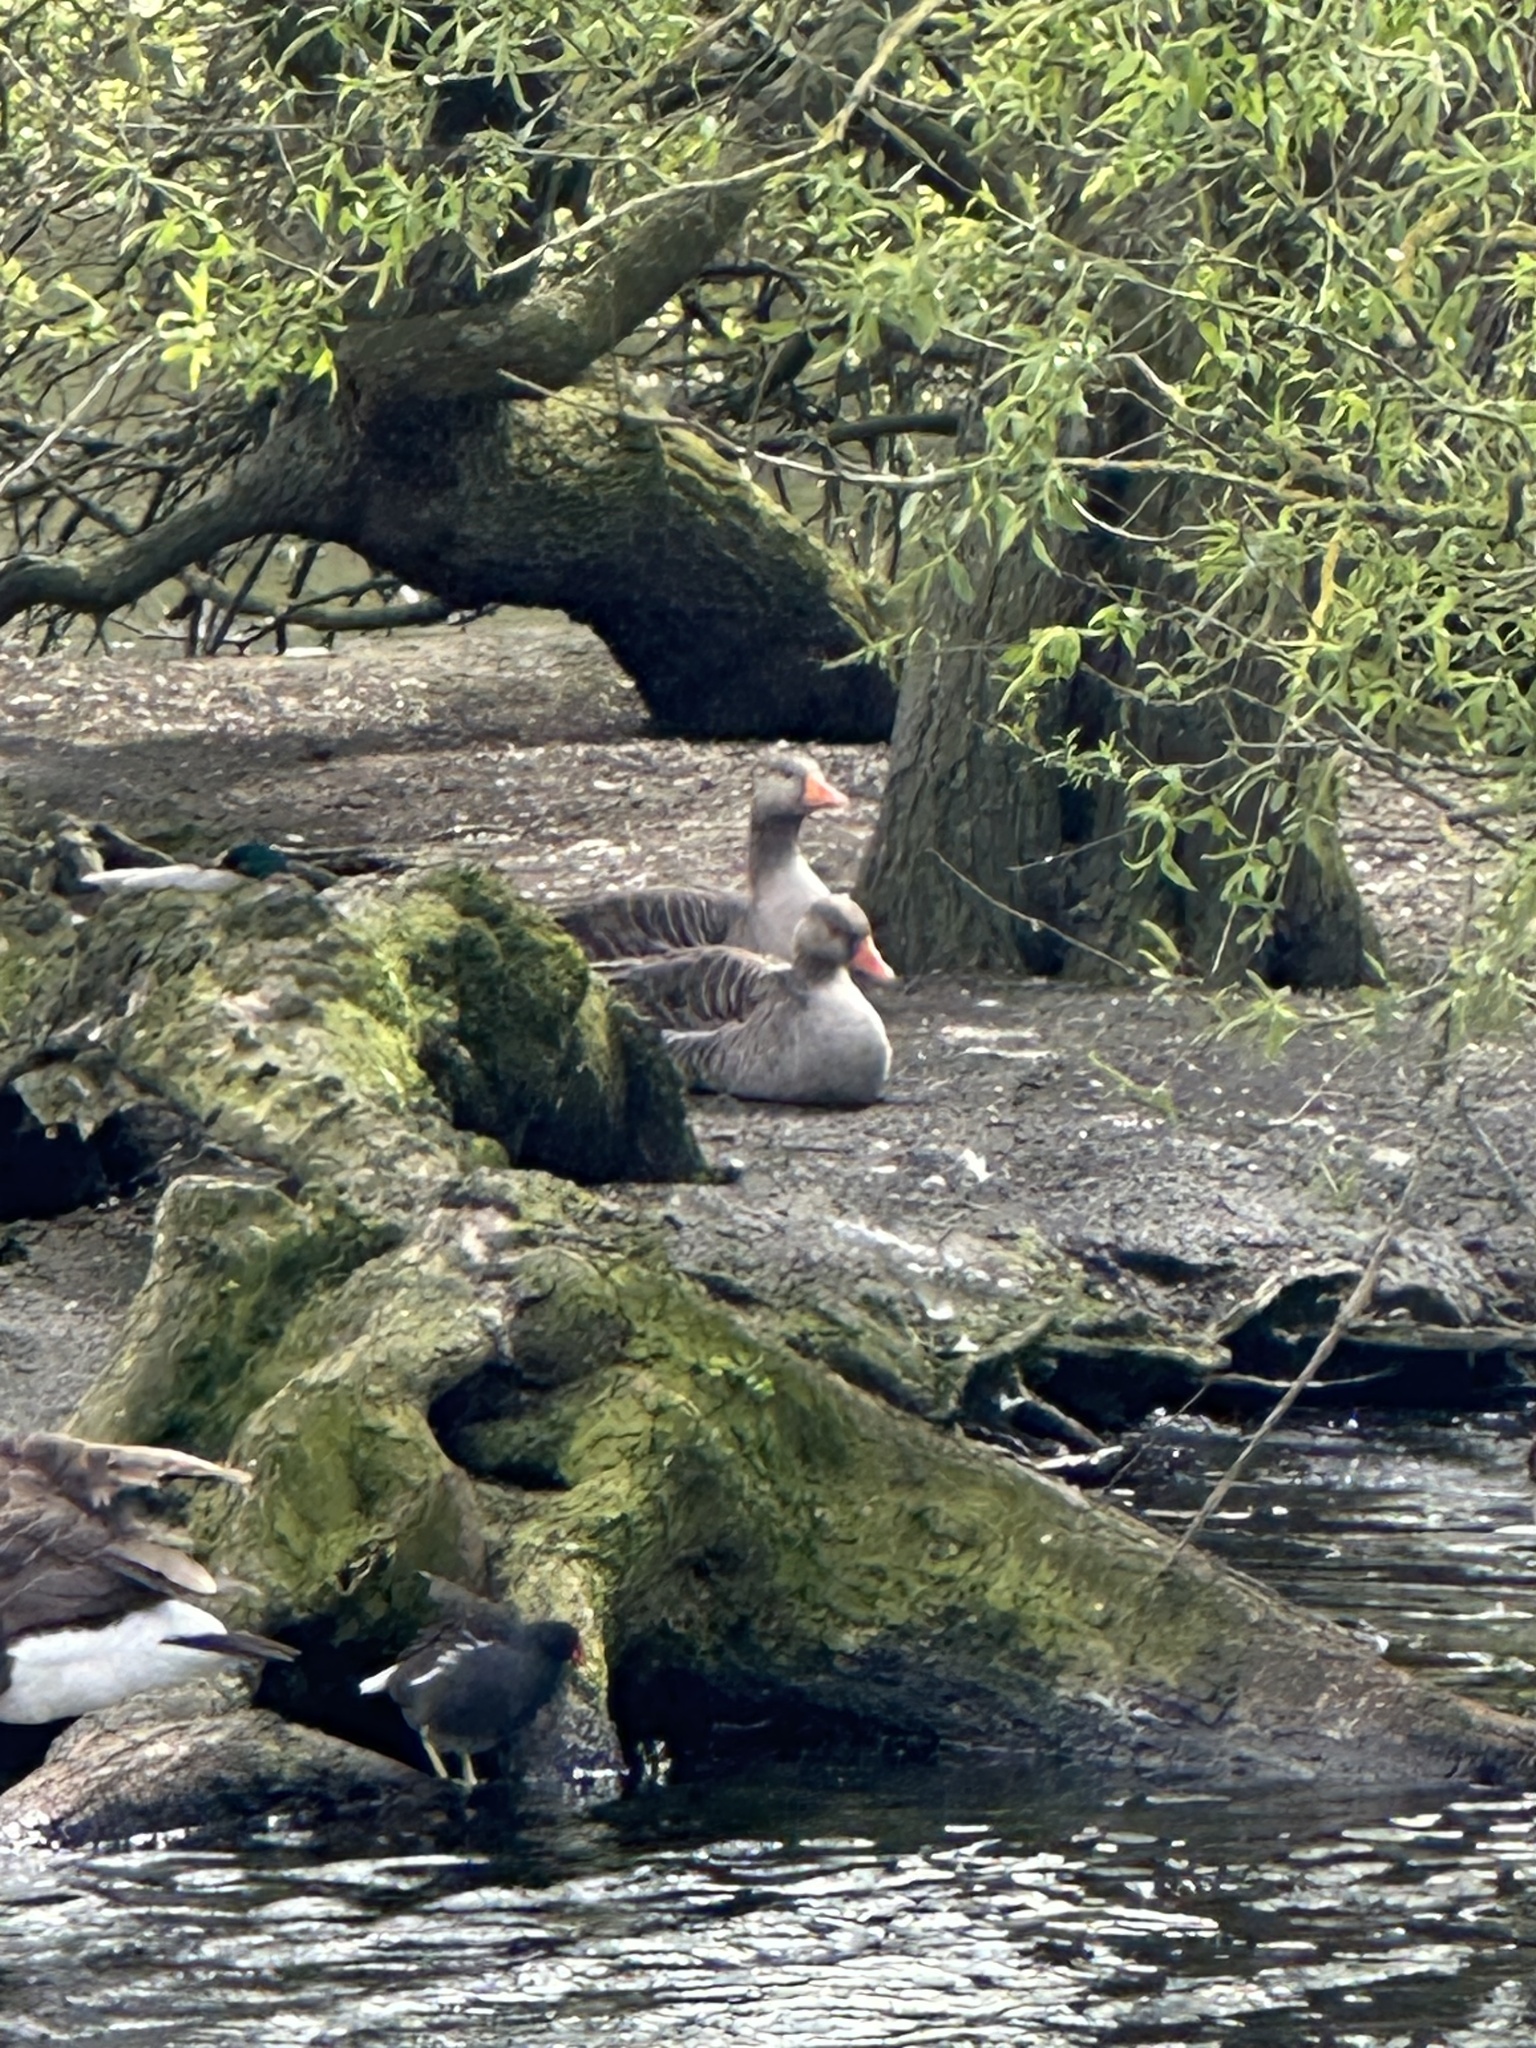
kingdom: Animalia
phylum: Chordata
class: Aves
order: Anseriformes
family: Anatidae
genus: Anser
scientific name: Anser anser
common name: Greylag goose
